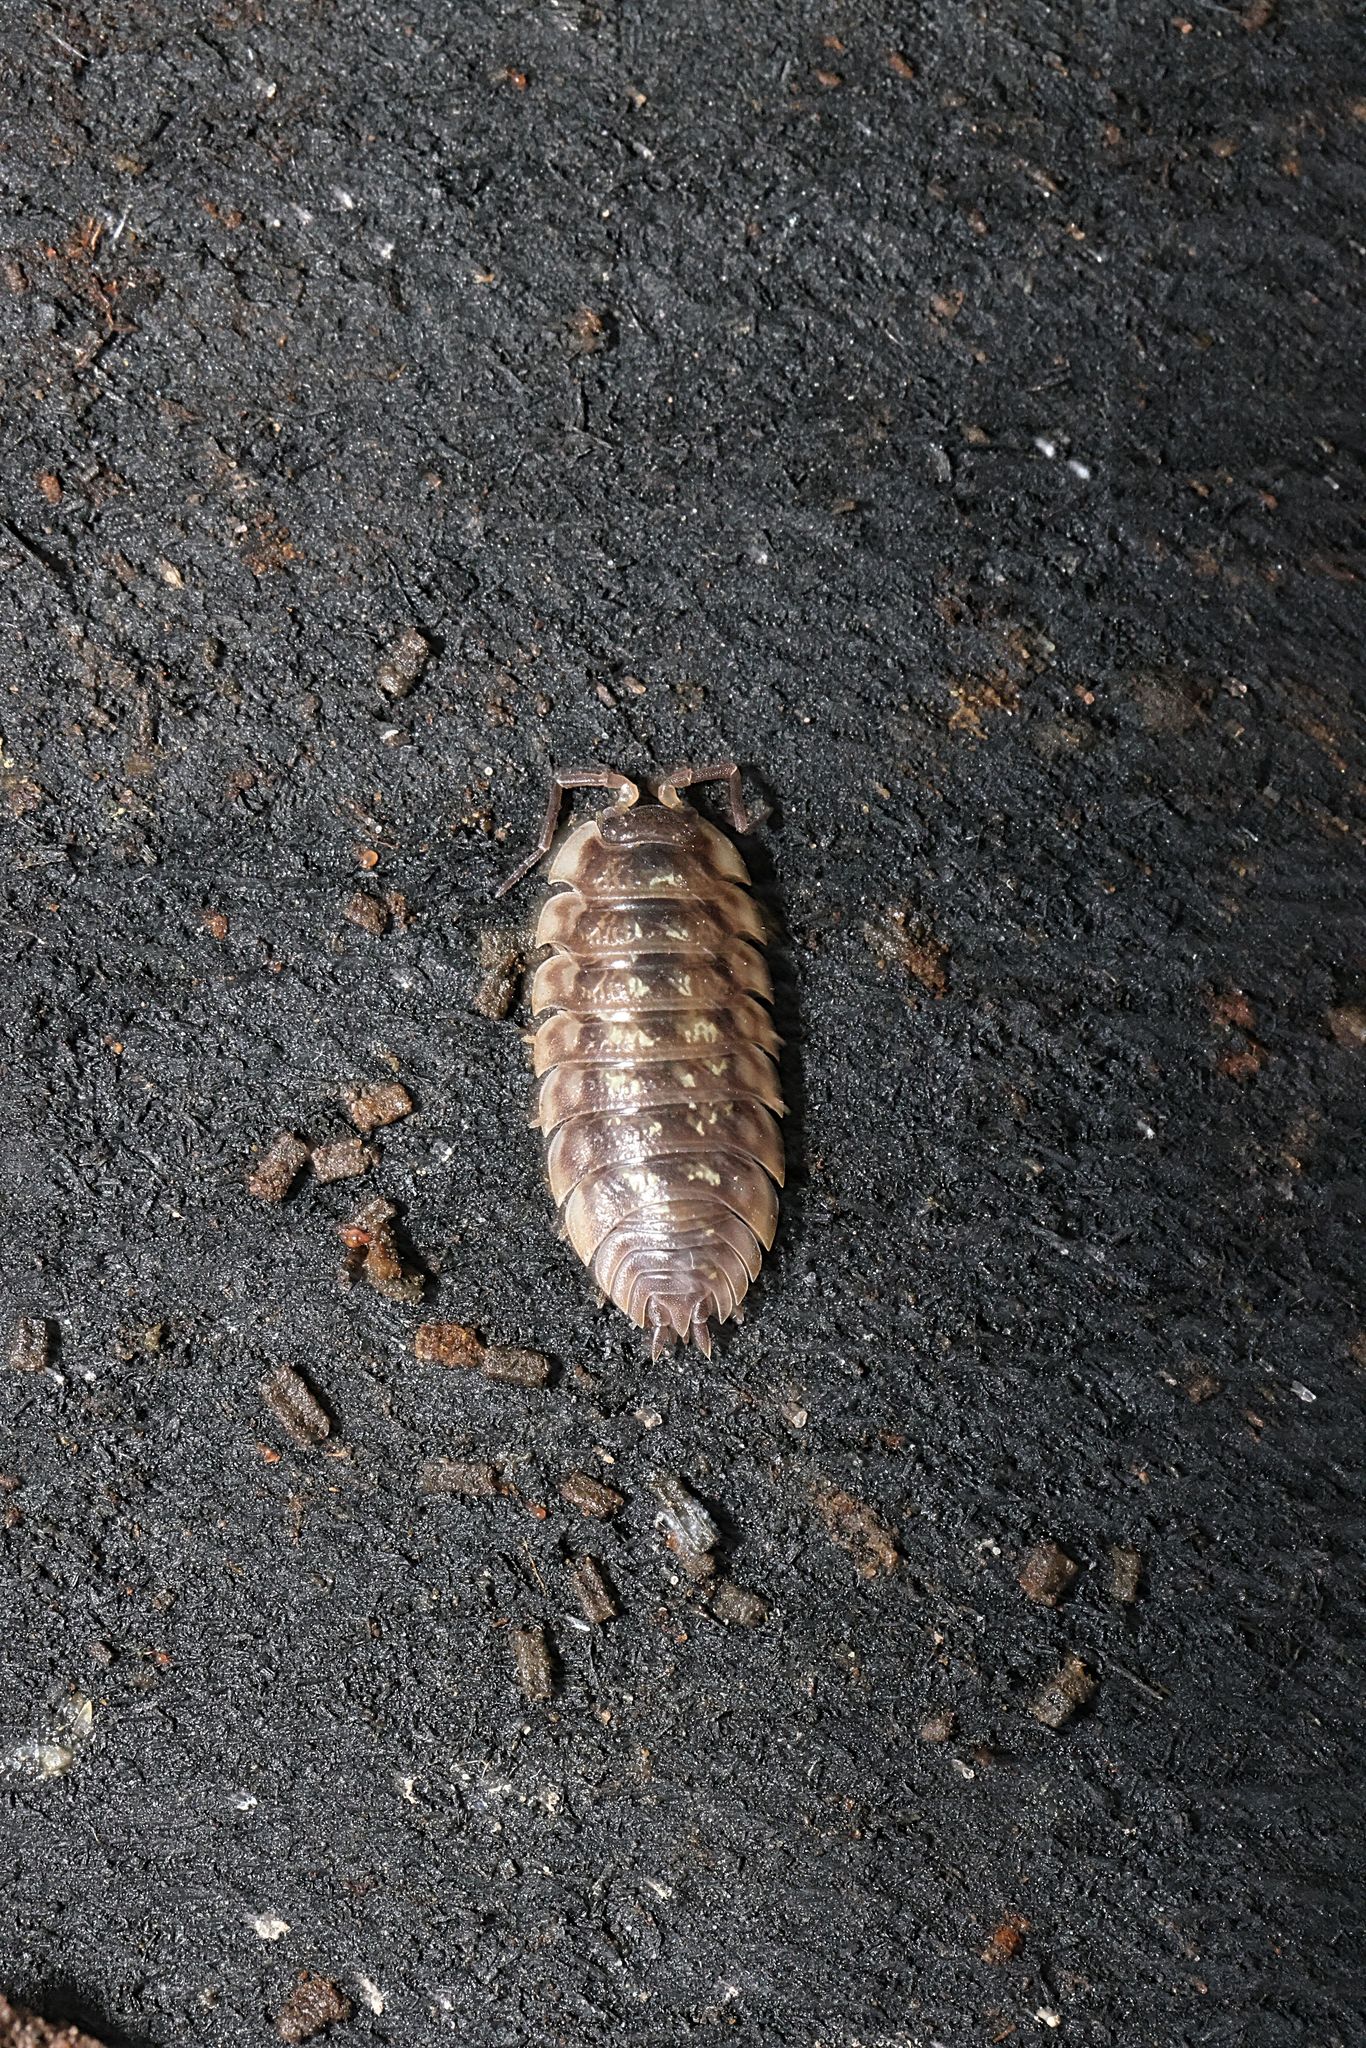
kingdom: Animalia
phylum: Arthropoda
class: Malacostraca
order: Isopoda
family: Oniscidae
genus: Oniscus
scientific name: Oniscus asellus
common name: Common shiny woodlouse
